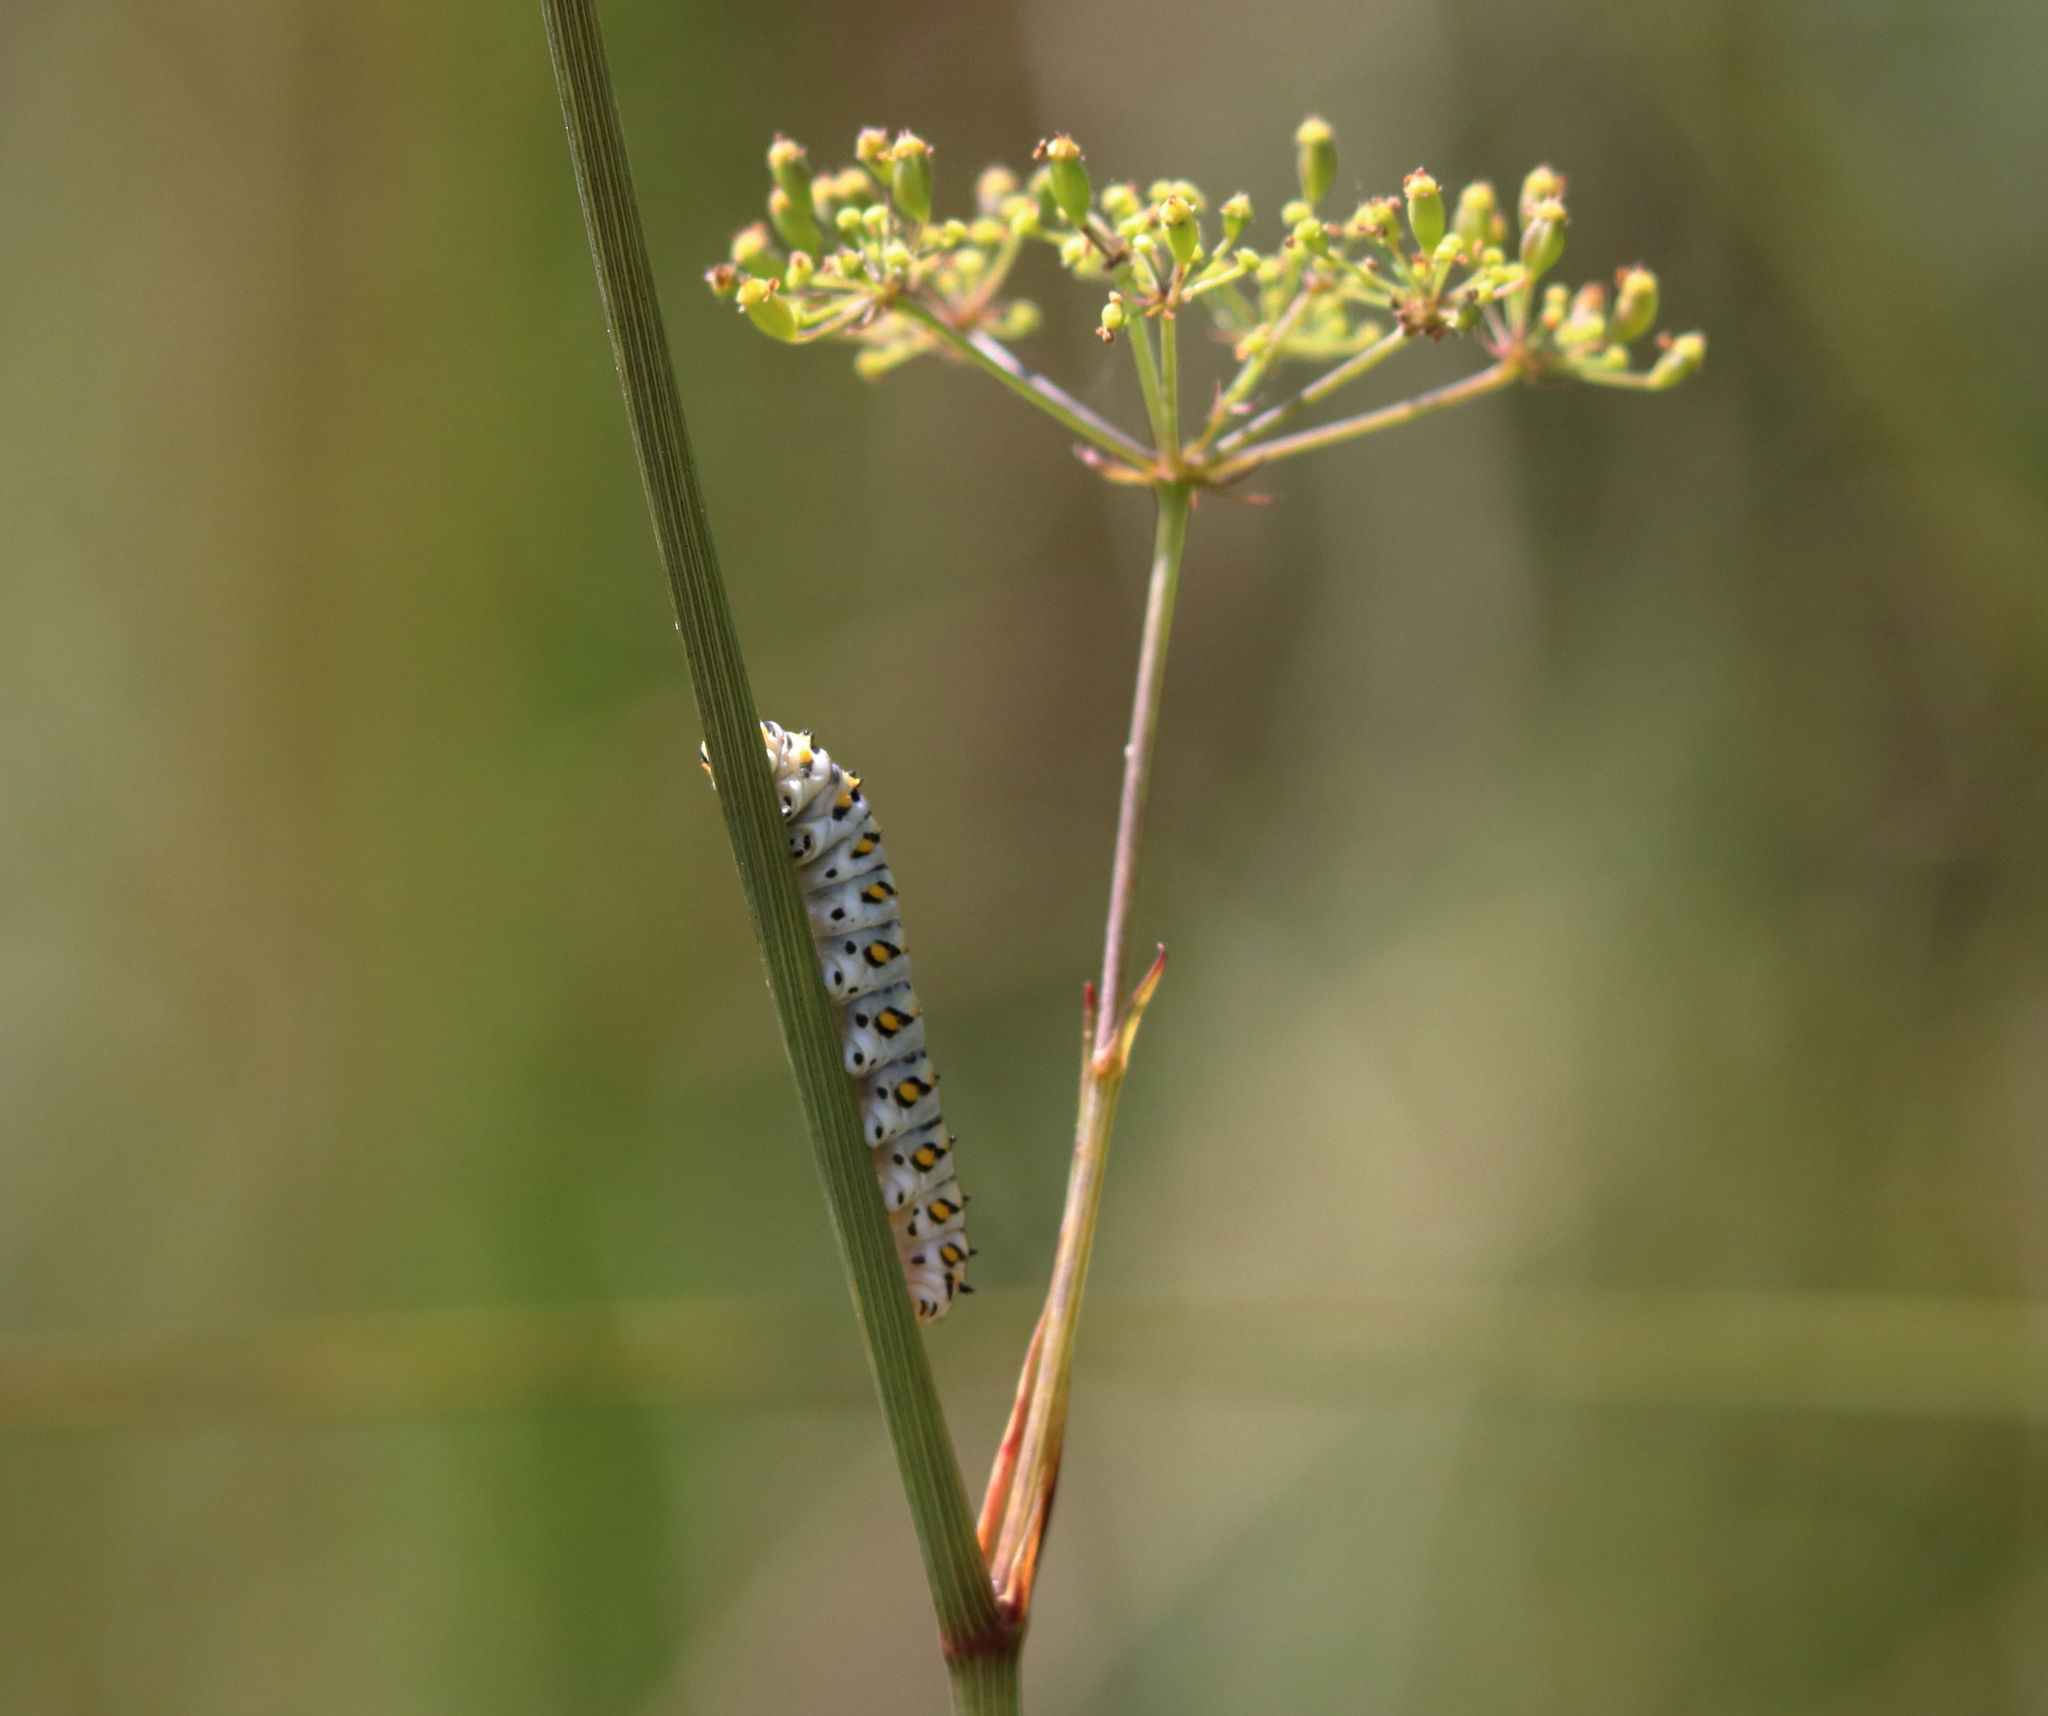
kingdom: Animalia
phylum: Arthropoda
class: Insecta
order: Lepidoptera
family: Papilionidae
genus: Papilio
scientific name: Papilio polyxenes
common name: Black swallowtail
